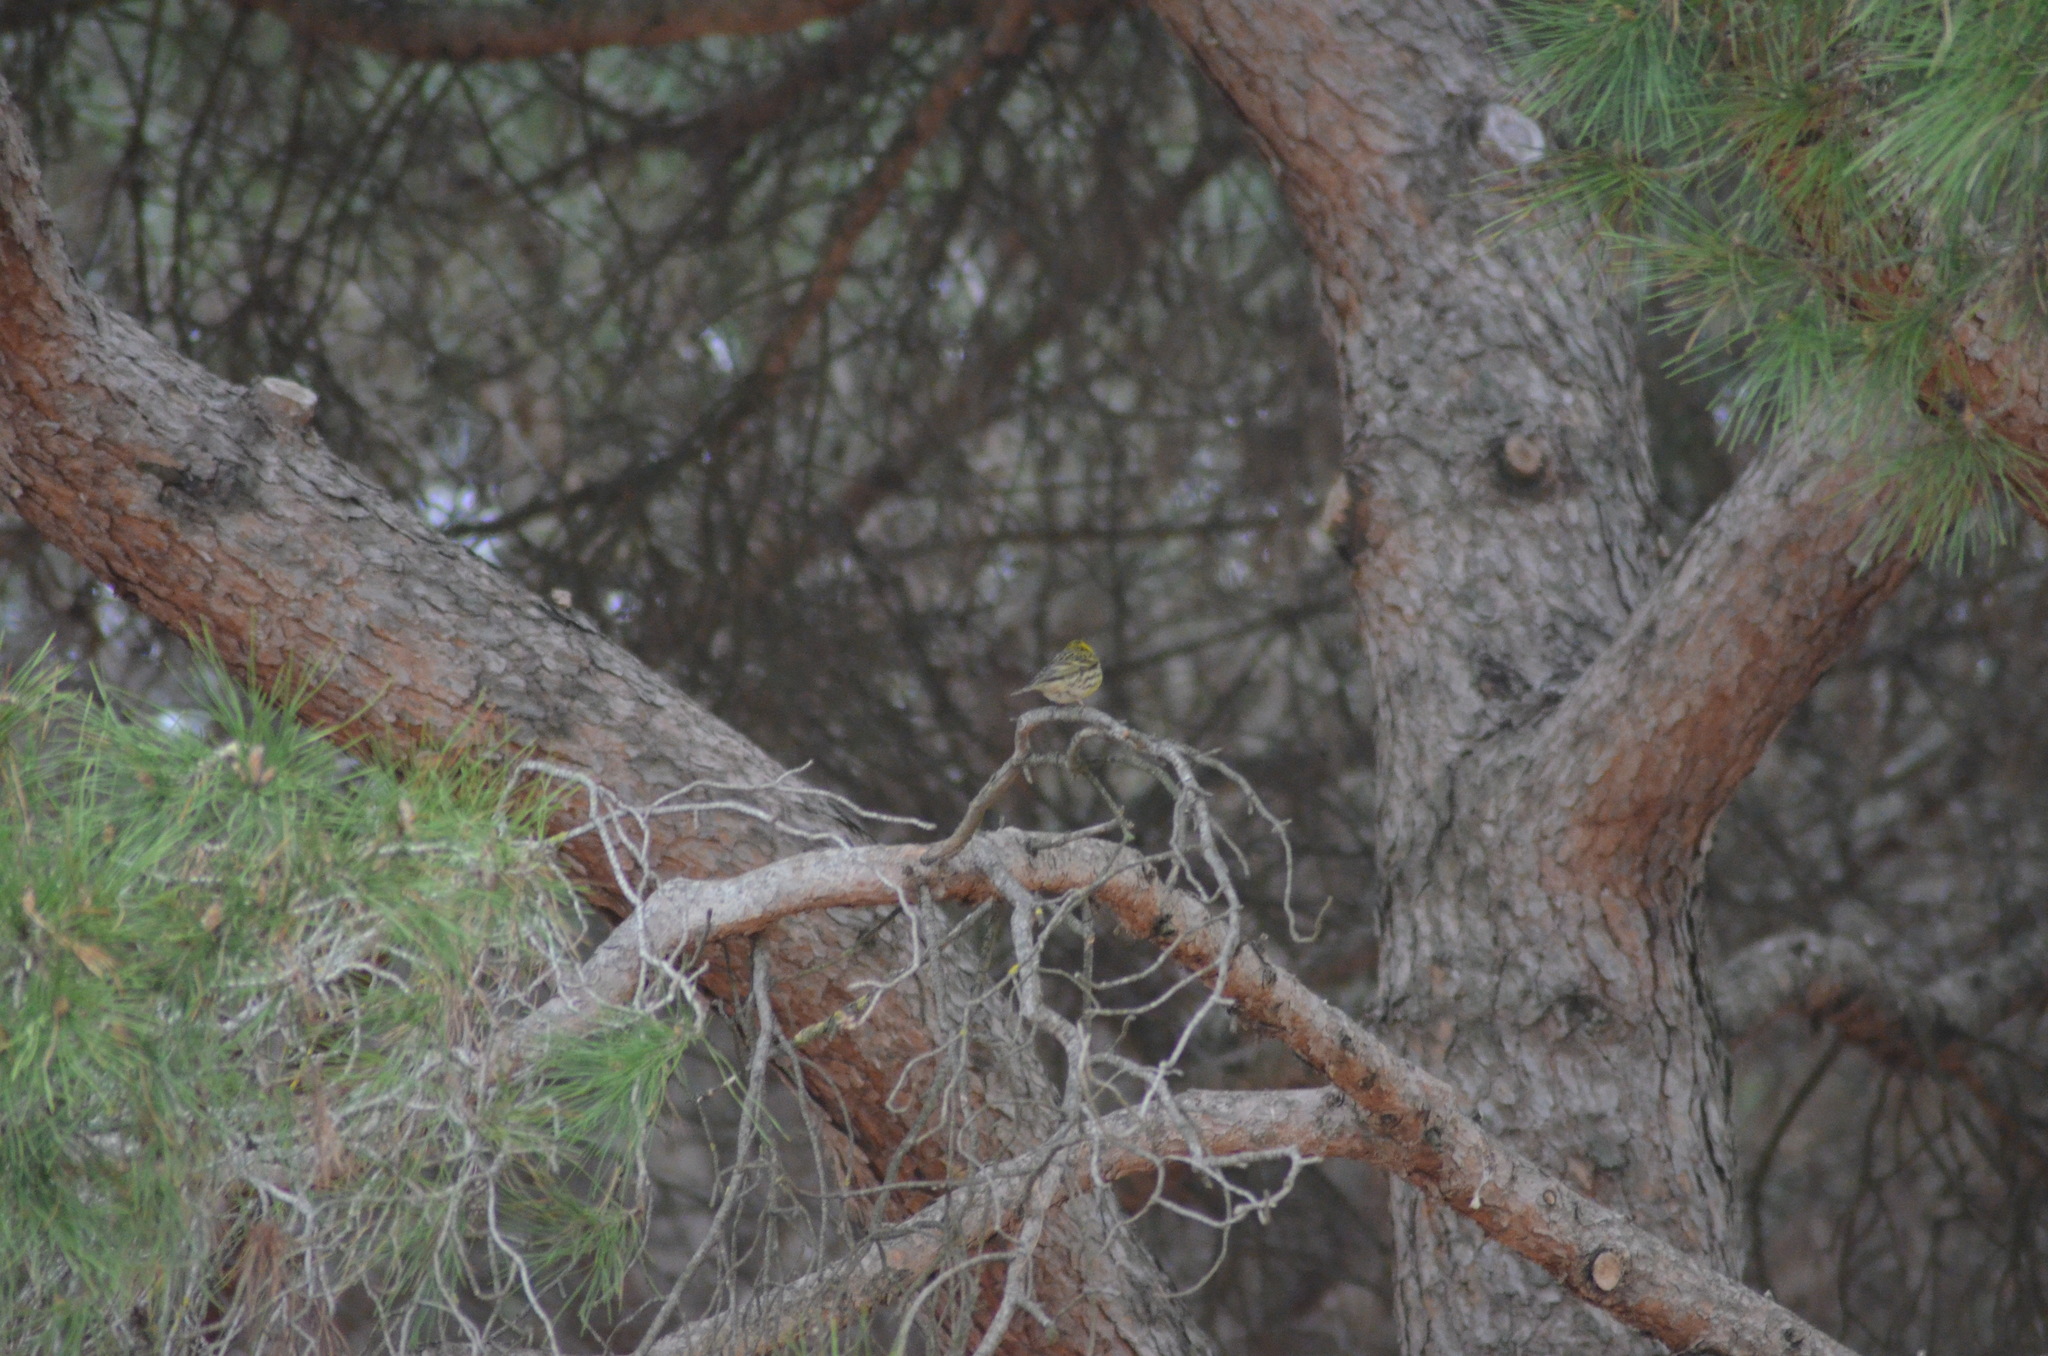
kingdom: Animalia
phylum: Chordata
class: Aves
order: Passeriformes
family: Fringillidae
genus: Serinus
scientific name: Serinus serinus
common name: European serin
